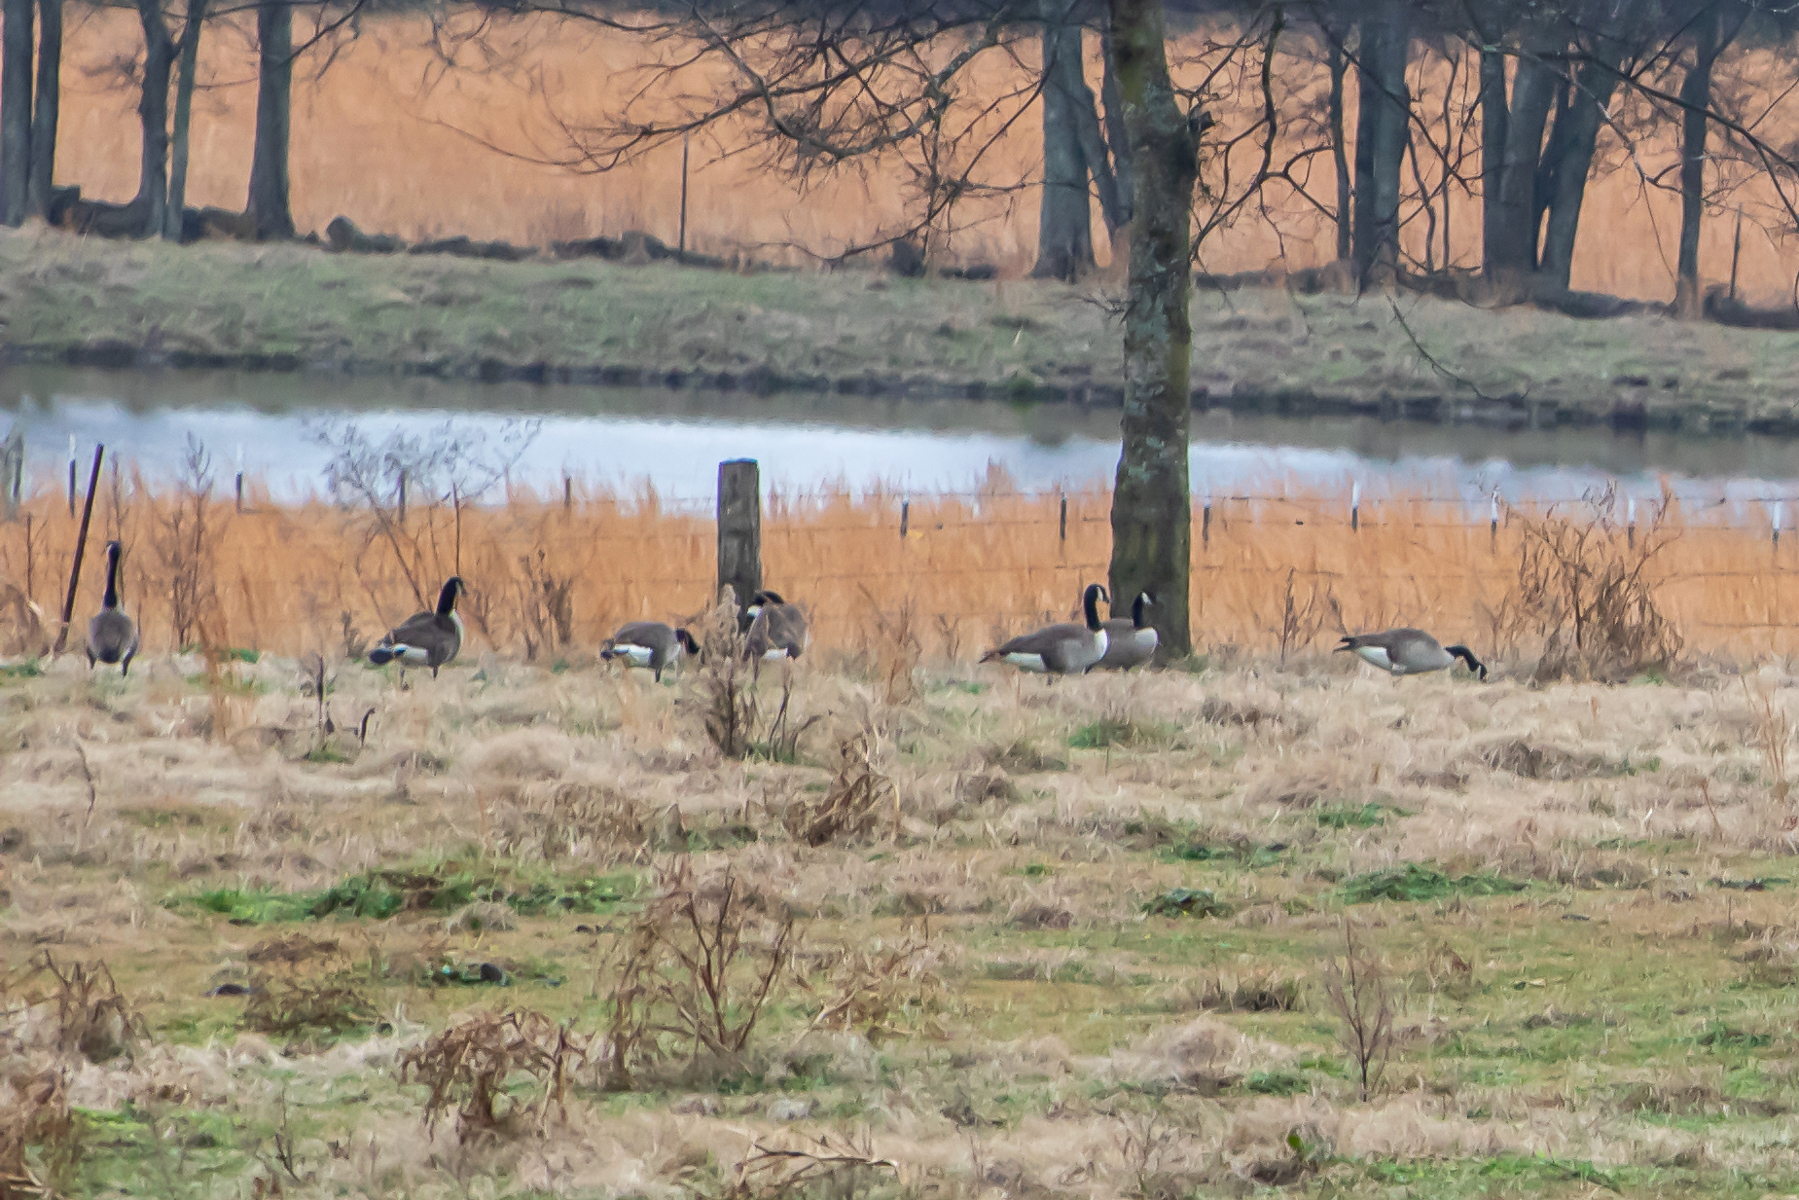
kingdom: Animalia
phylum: Chordata
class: Aves
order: Anseriformes
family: Anatidae
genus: Branta
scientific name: Branta canadensis
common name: Canada goose
